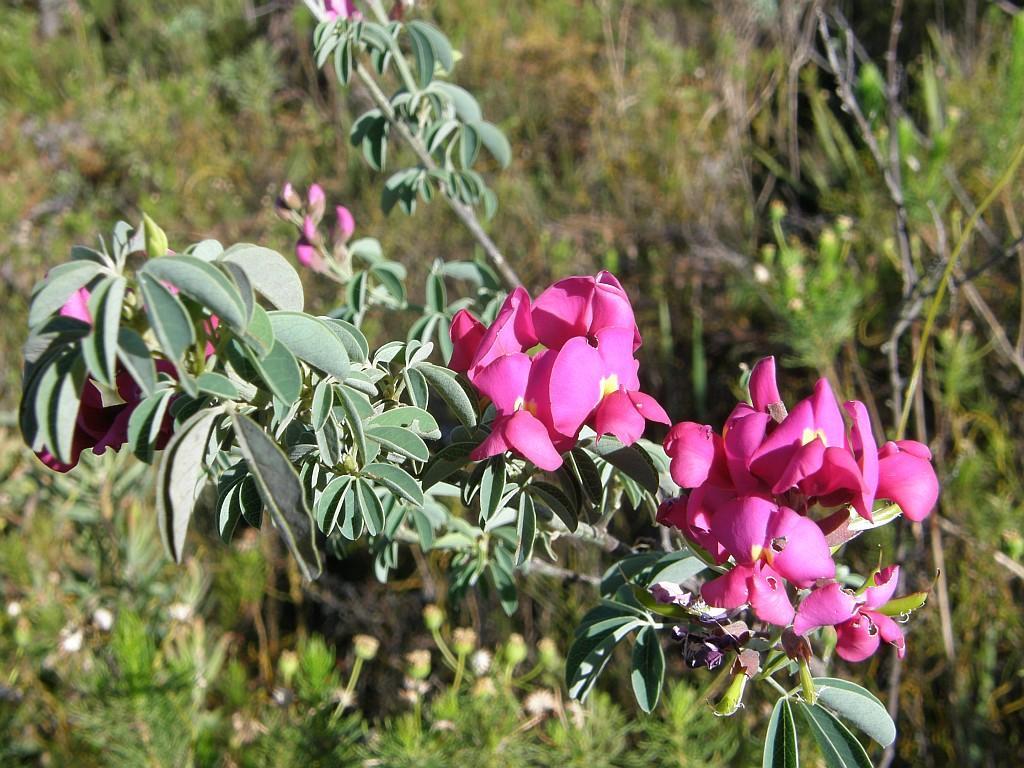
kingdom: Plantae
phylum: Tracheophyta
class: Magnoliopsida
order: Fabales
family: Fabaceae
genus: Hypocalyptus
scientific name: Hypocalyptus coluteoides
